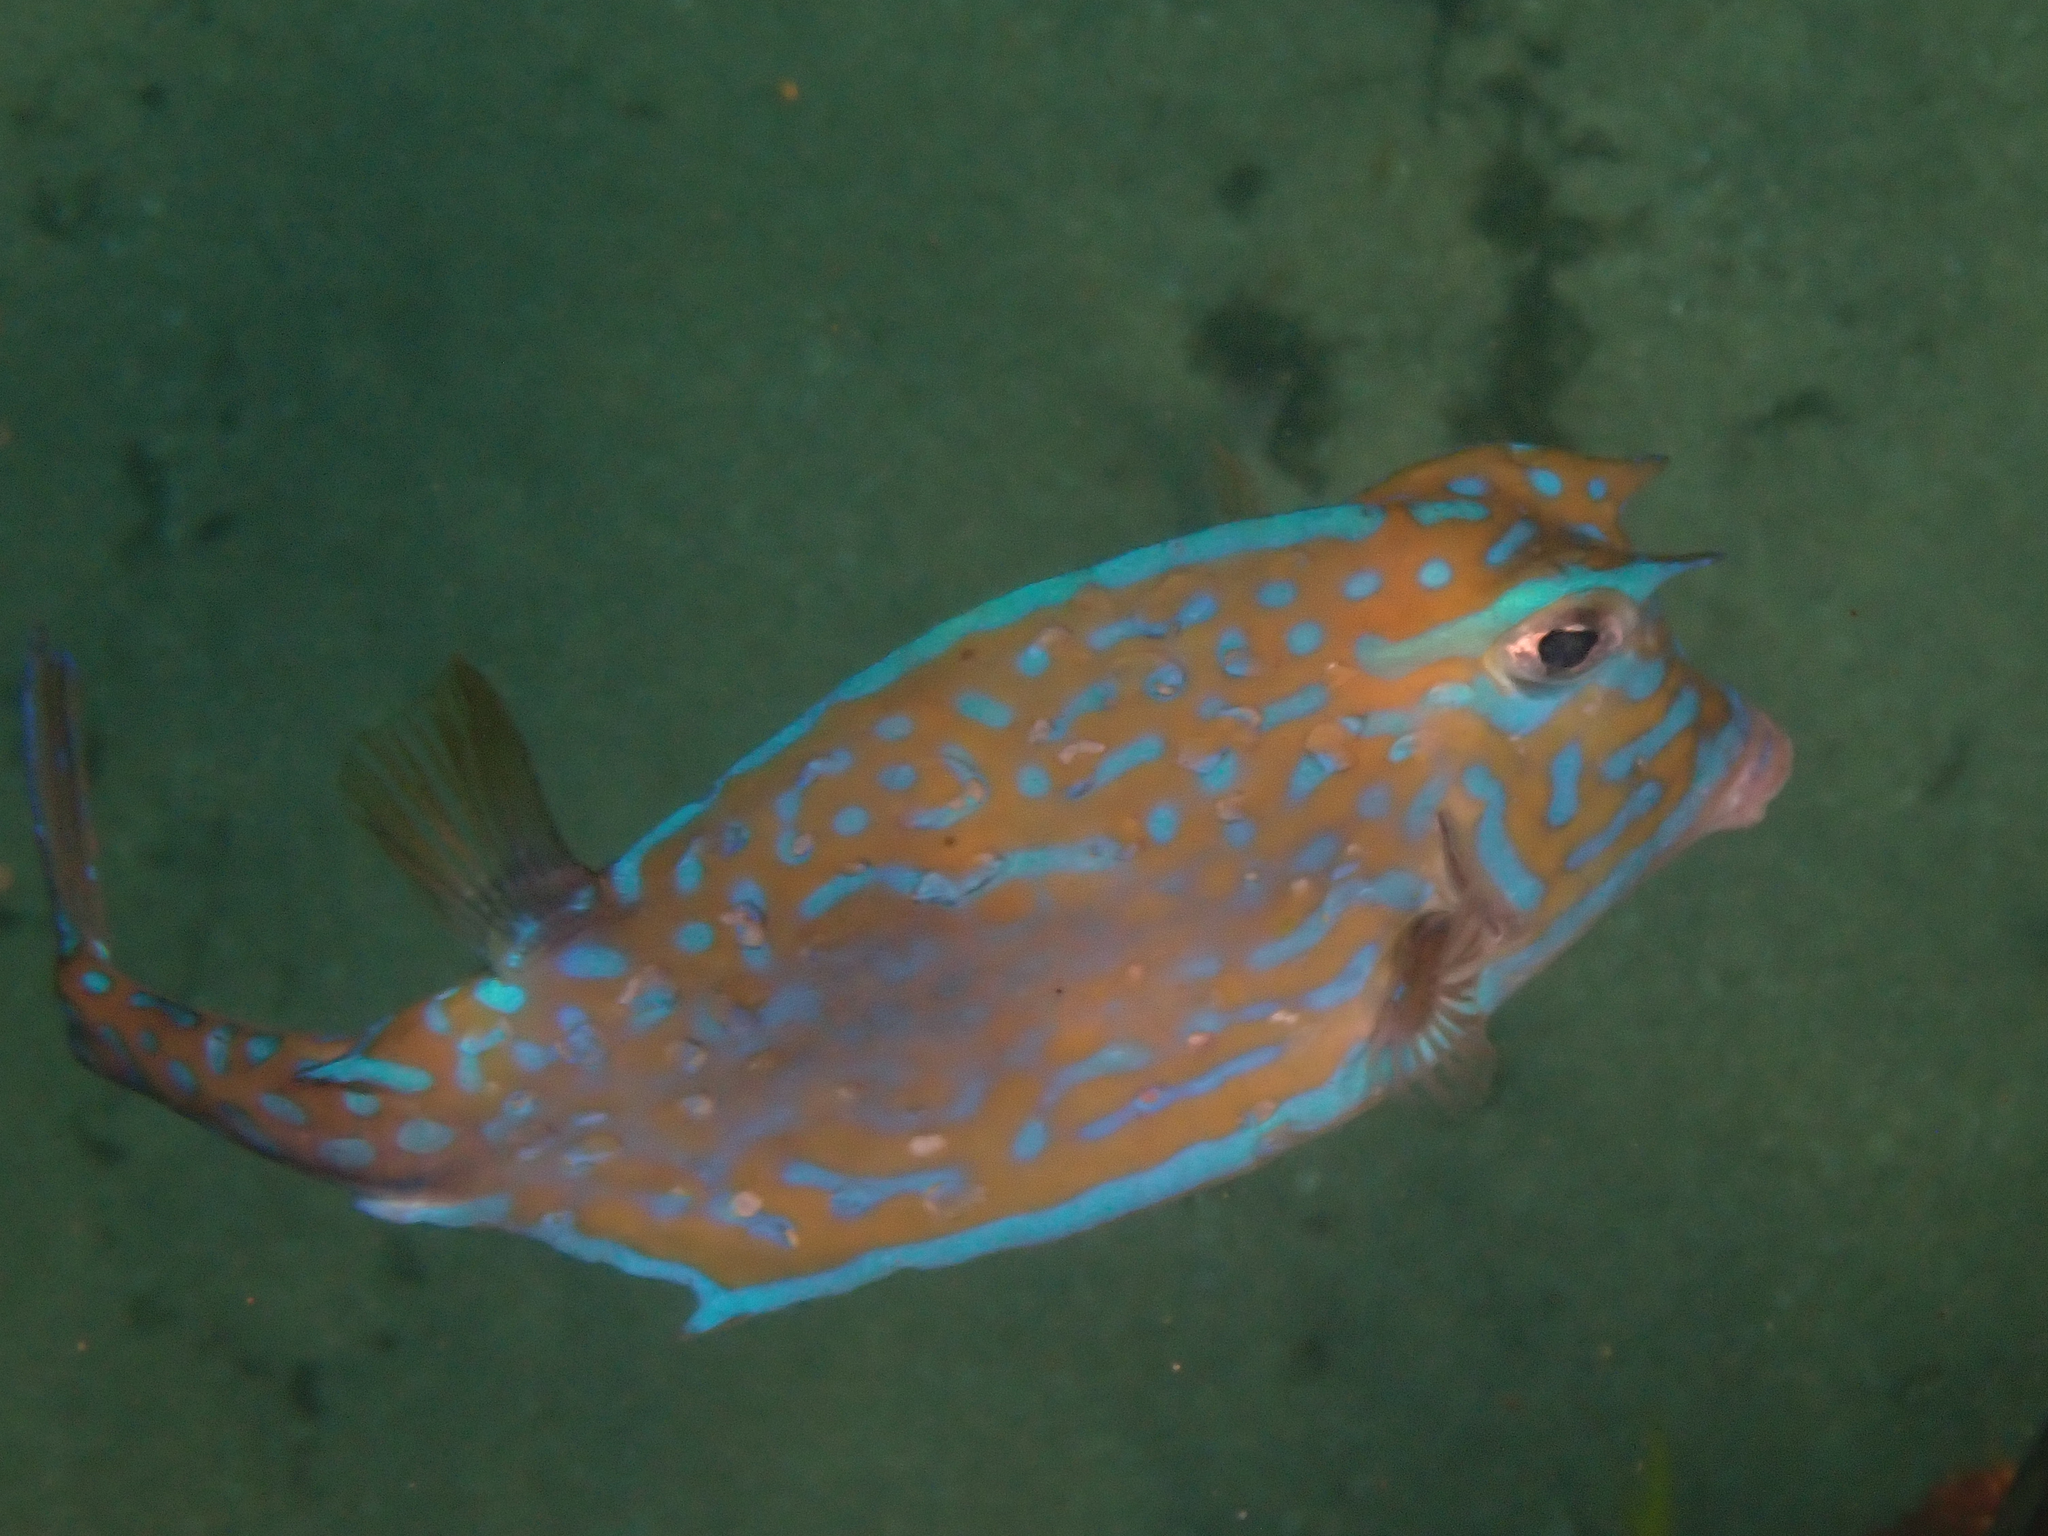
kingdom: Animalia
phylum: Chordata
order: Tetraodontiformes
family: Ostraciidae
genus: Acanthostracion
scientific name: Acanthostracion quadricornis
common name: Scrawled cowfish
